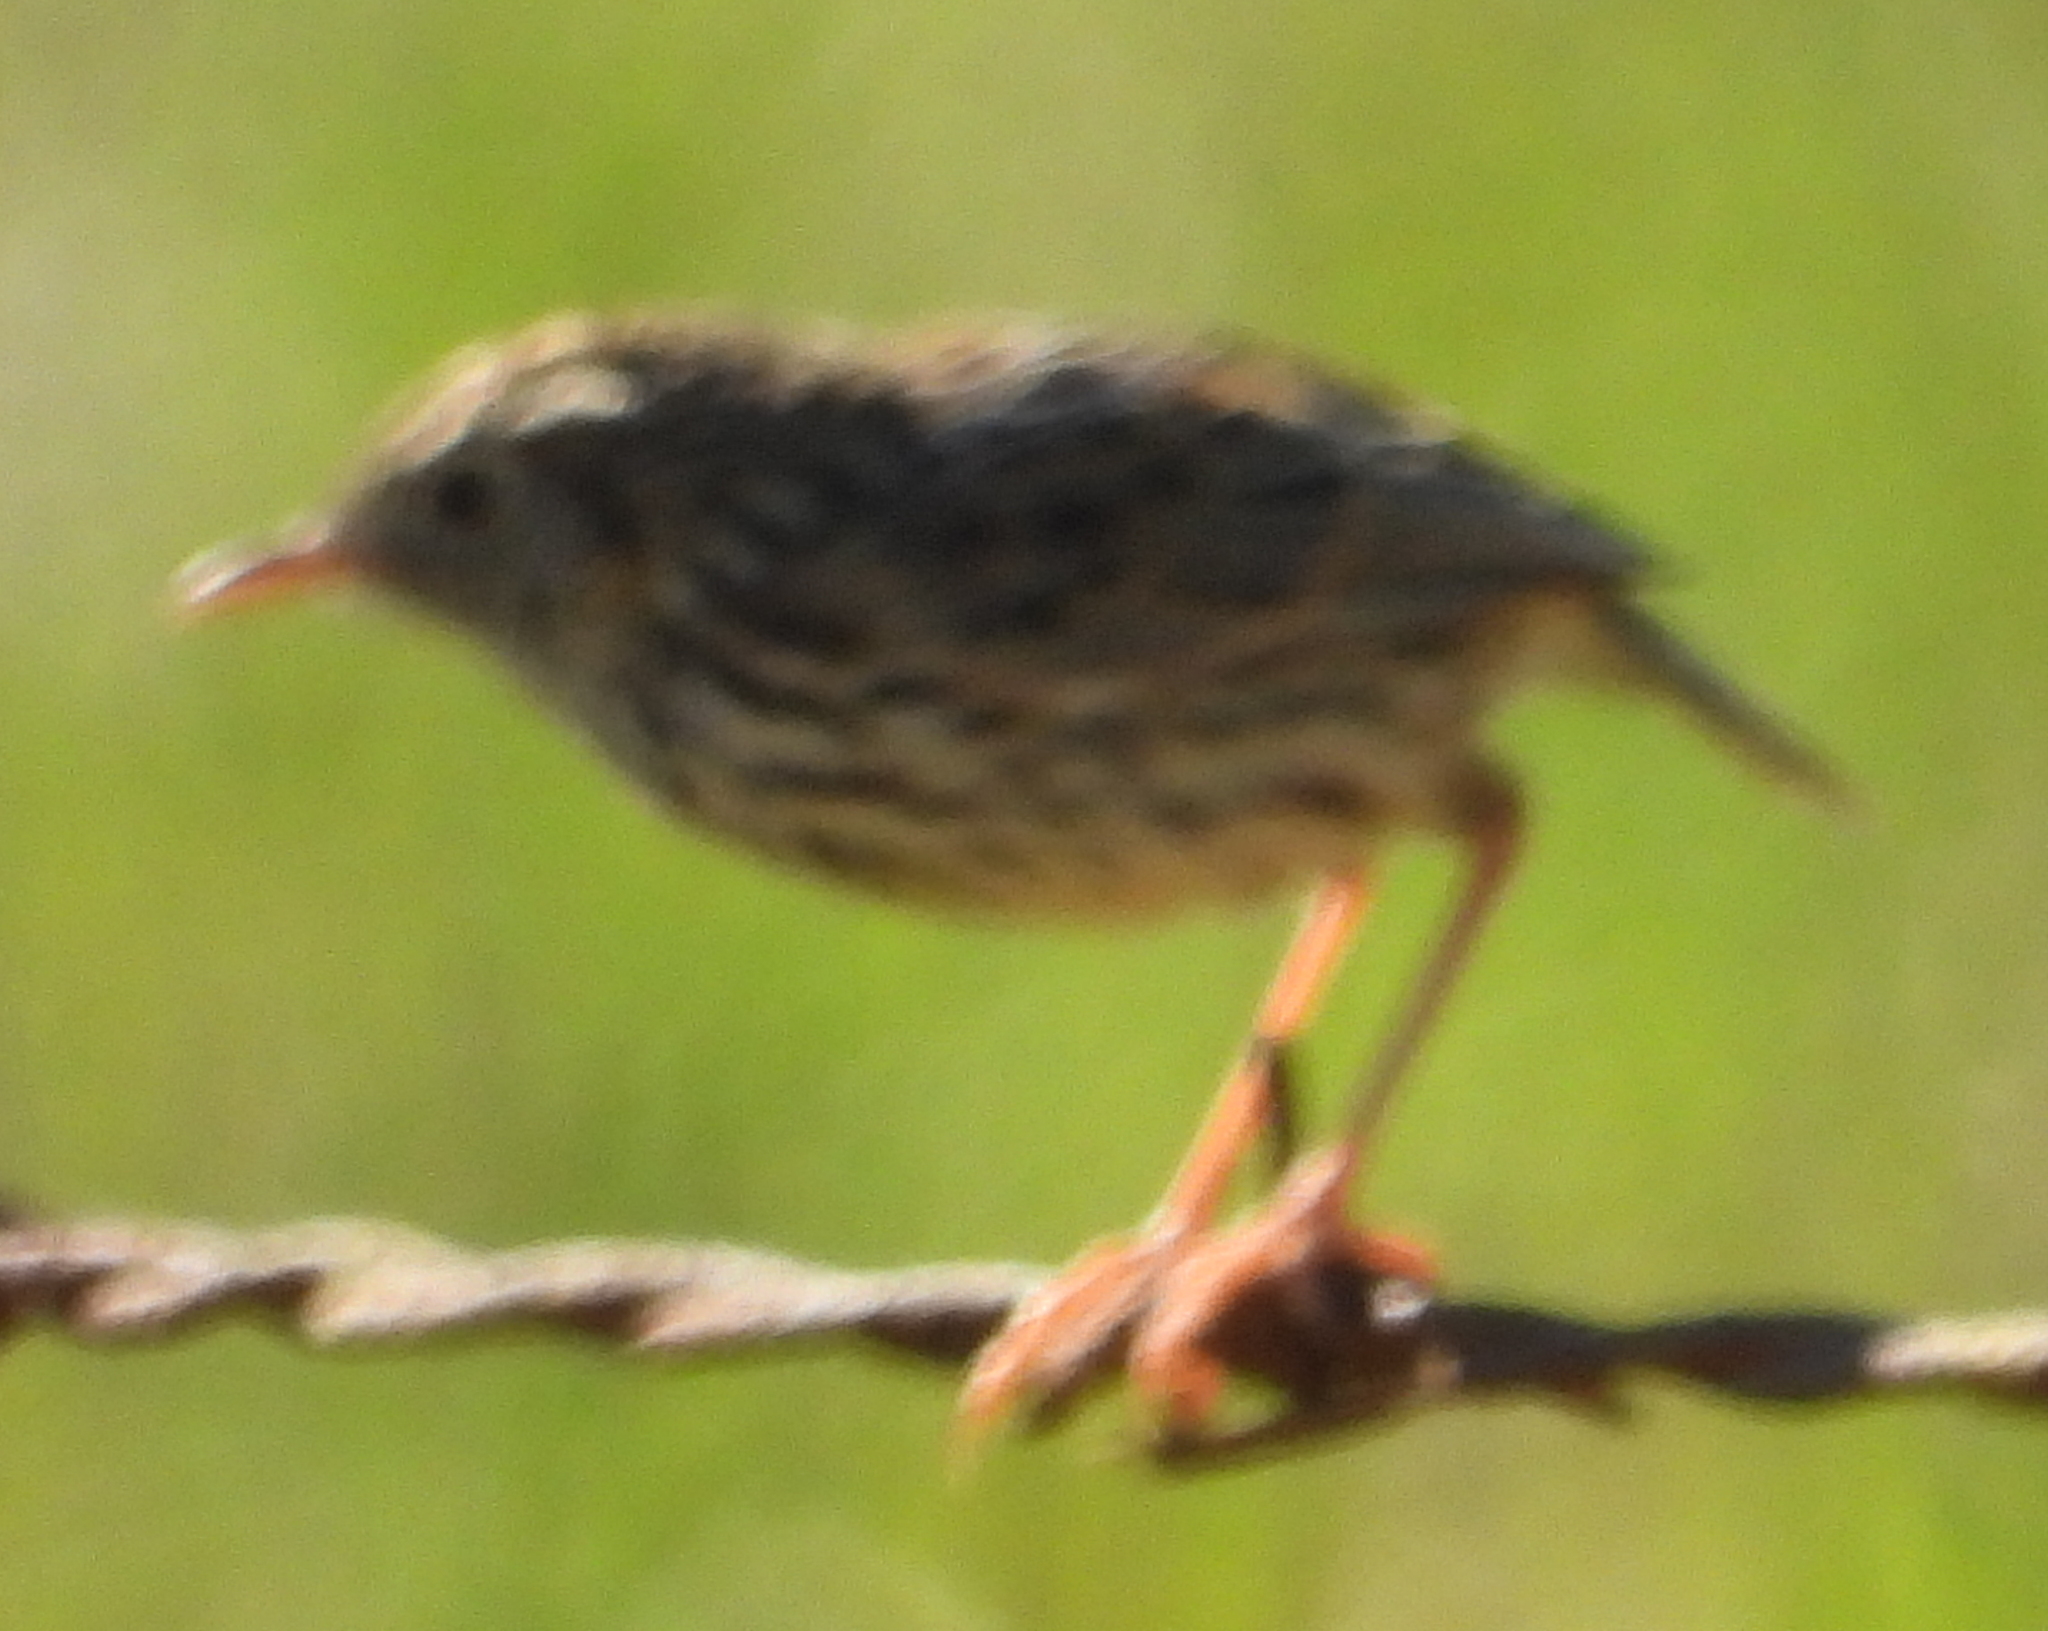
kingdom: Animalia
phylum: Chordata
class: Aves
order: Passeriformes
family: Cisticolidae
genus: Cisticola
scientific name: Cisticola textrix
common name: Cloud cisticola
